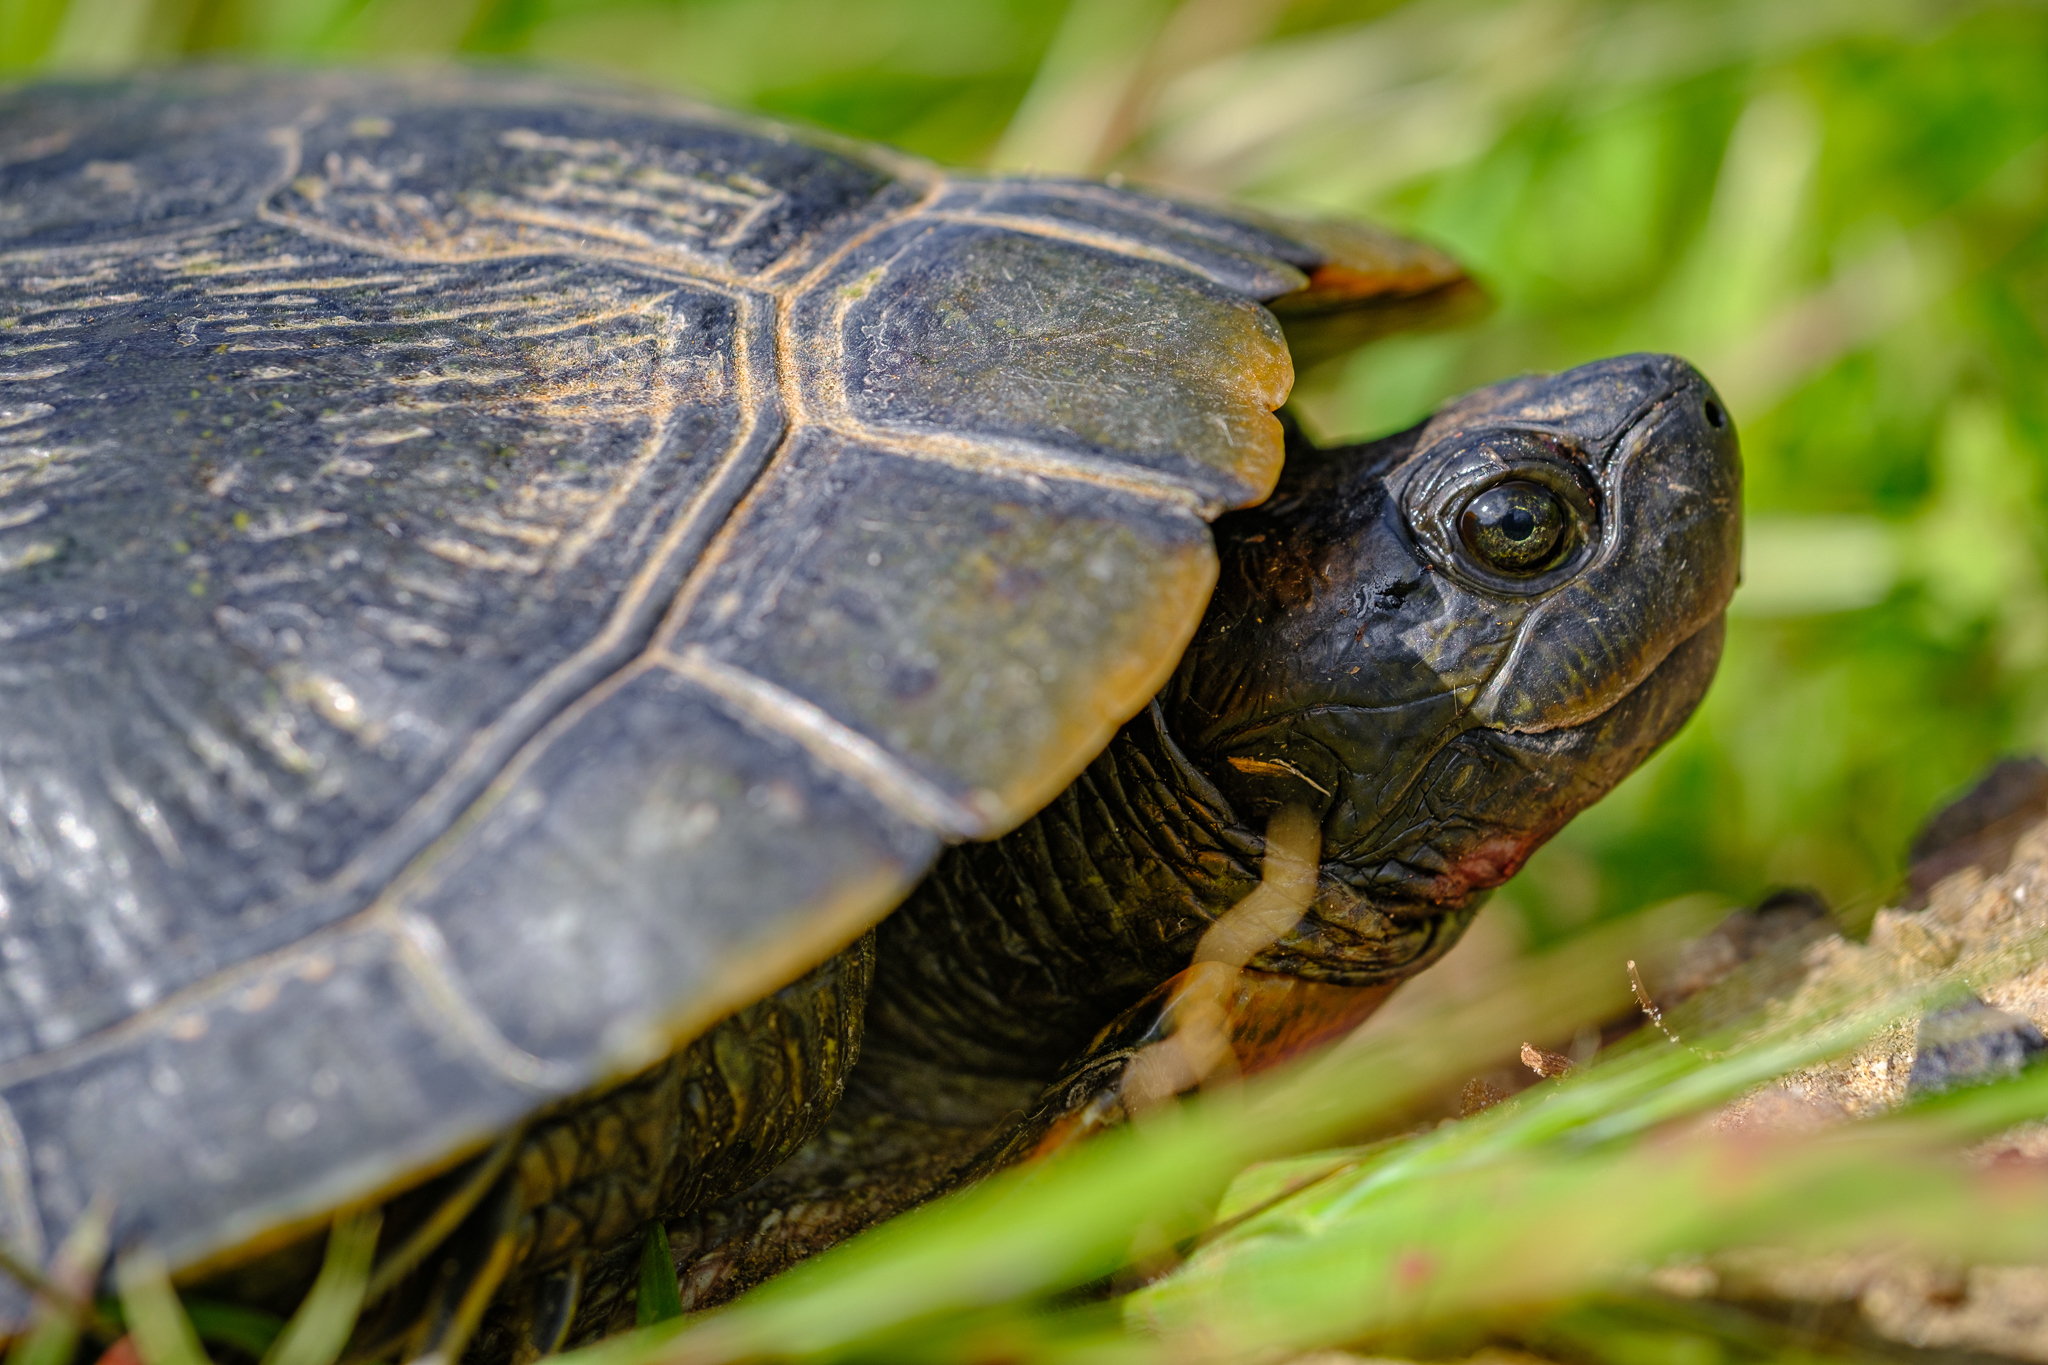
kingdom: Animalia
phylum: Chordata
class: Testudines
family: Emydidae
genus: Trachemys
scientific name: Trachemys scripta
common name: Slider
